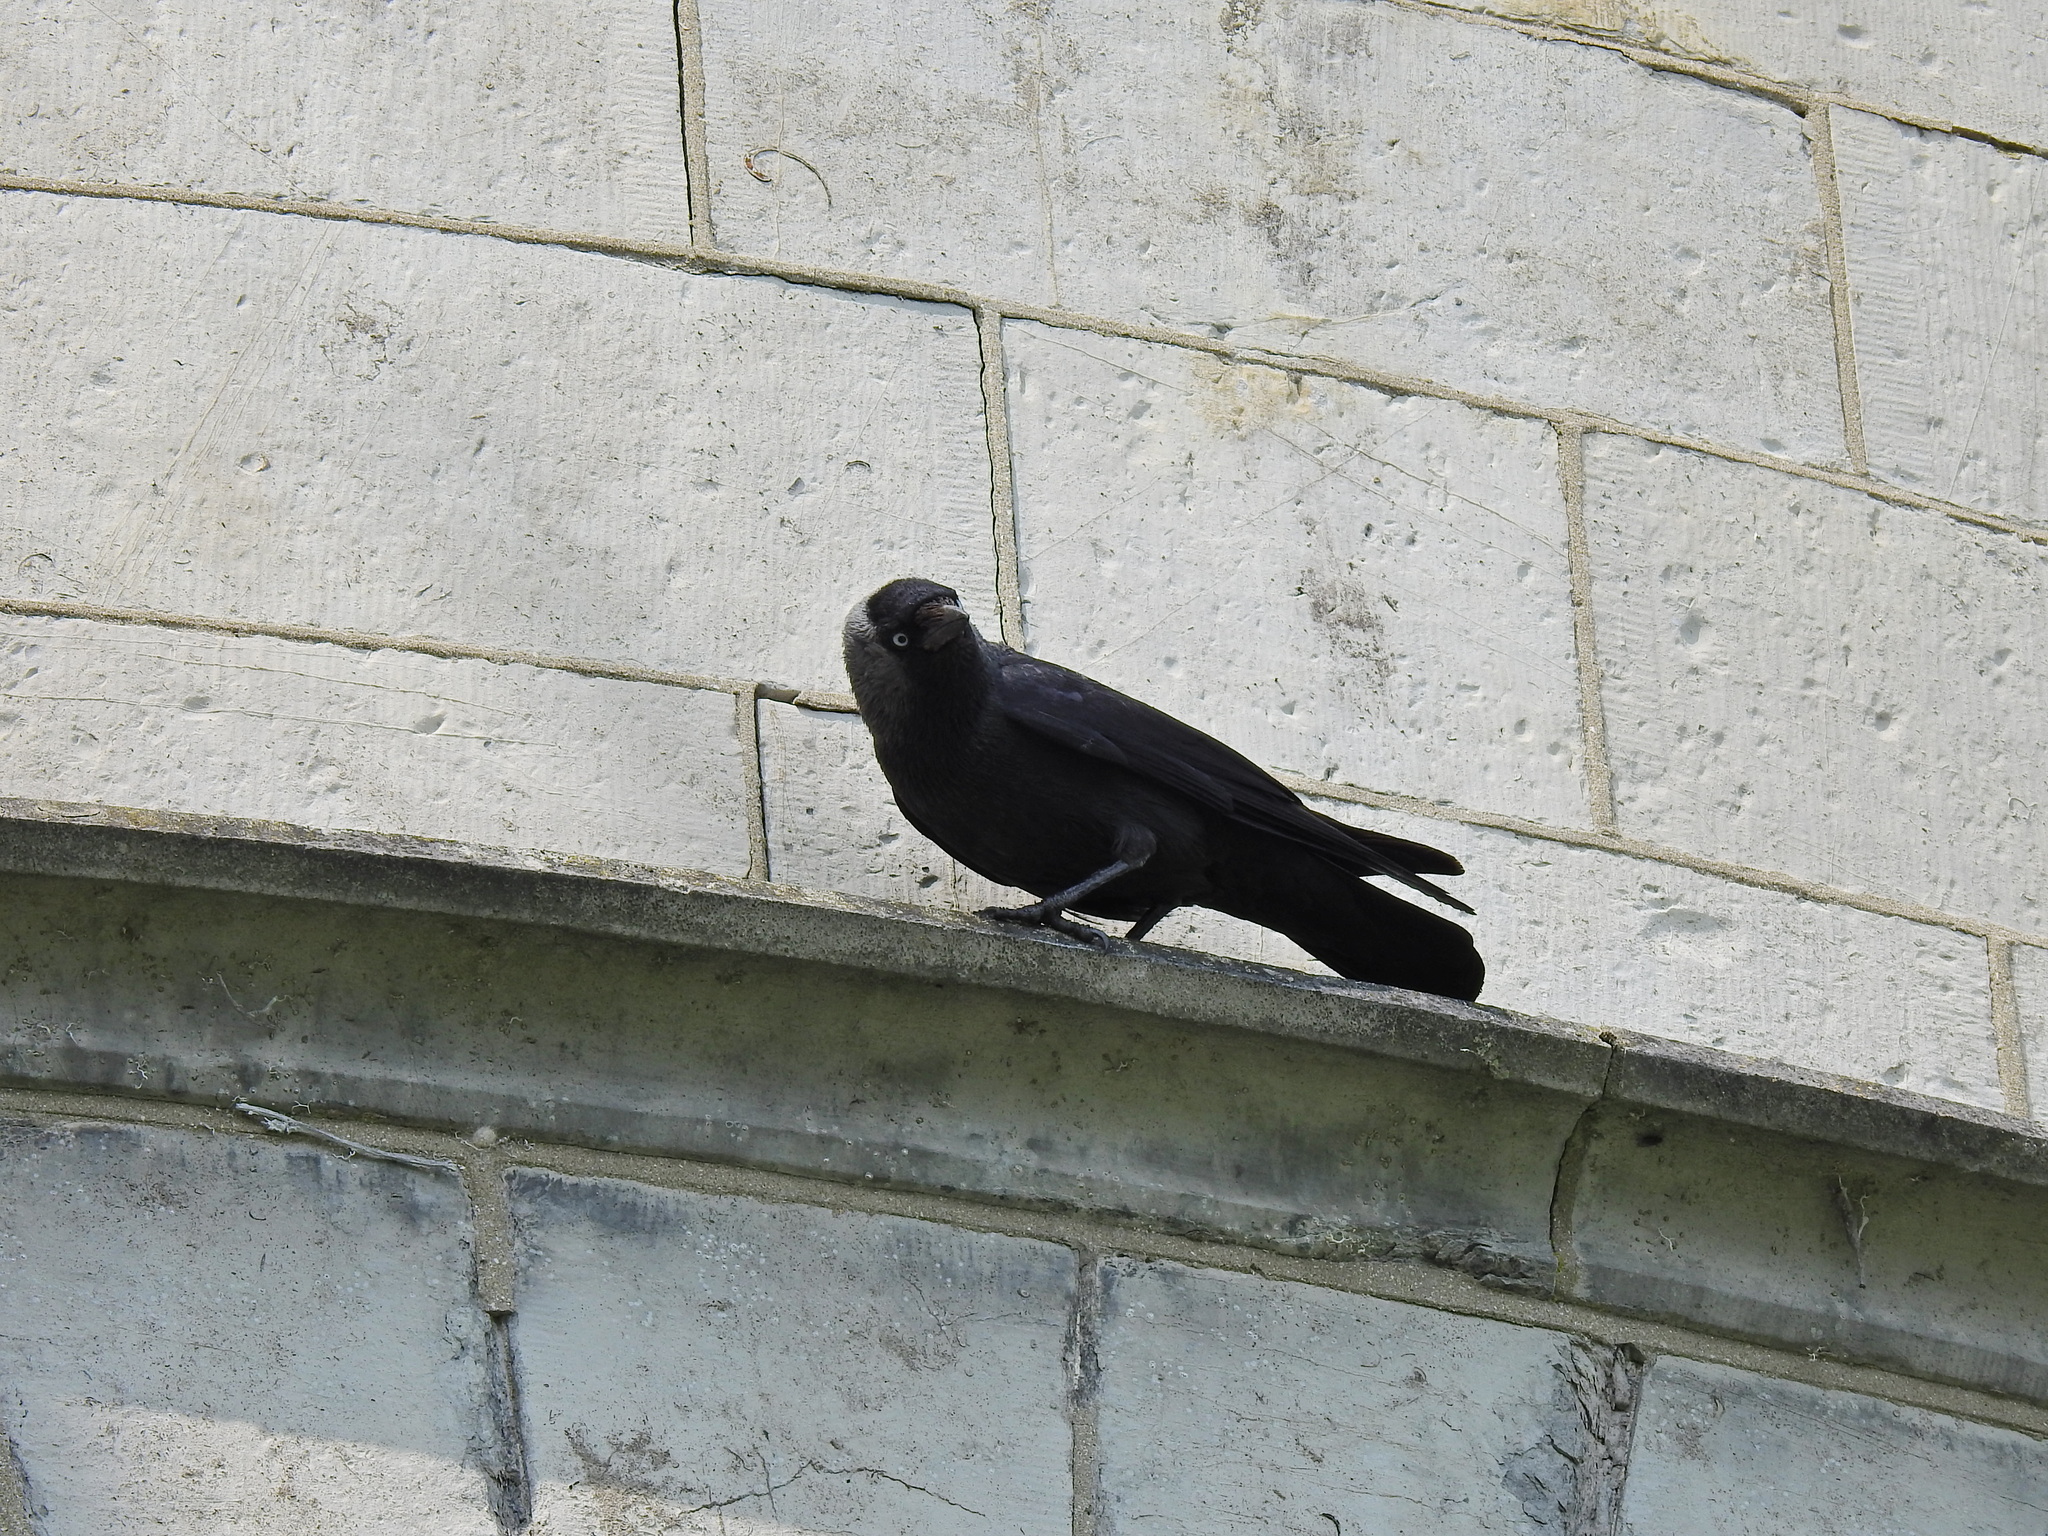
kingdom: Animalia
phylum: Chordata
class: Aves
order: Passeriformes
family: Corvidae
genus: Coloeus
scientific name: Coloeus monedula
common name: Western jackdaw
